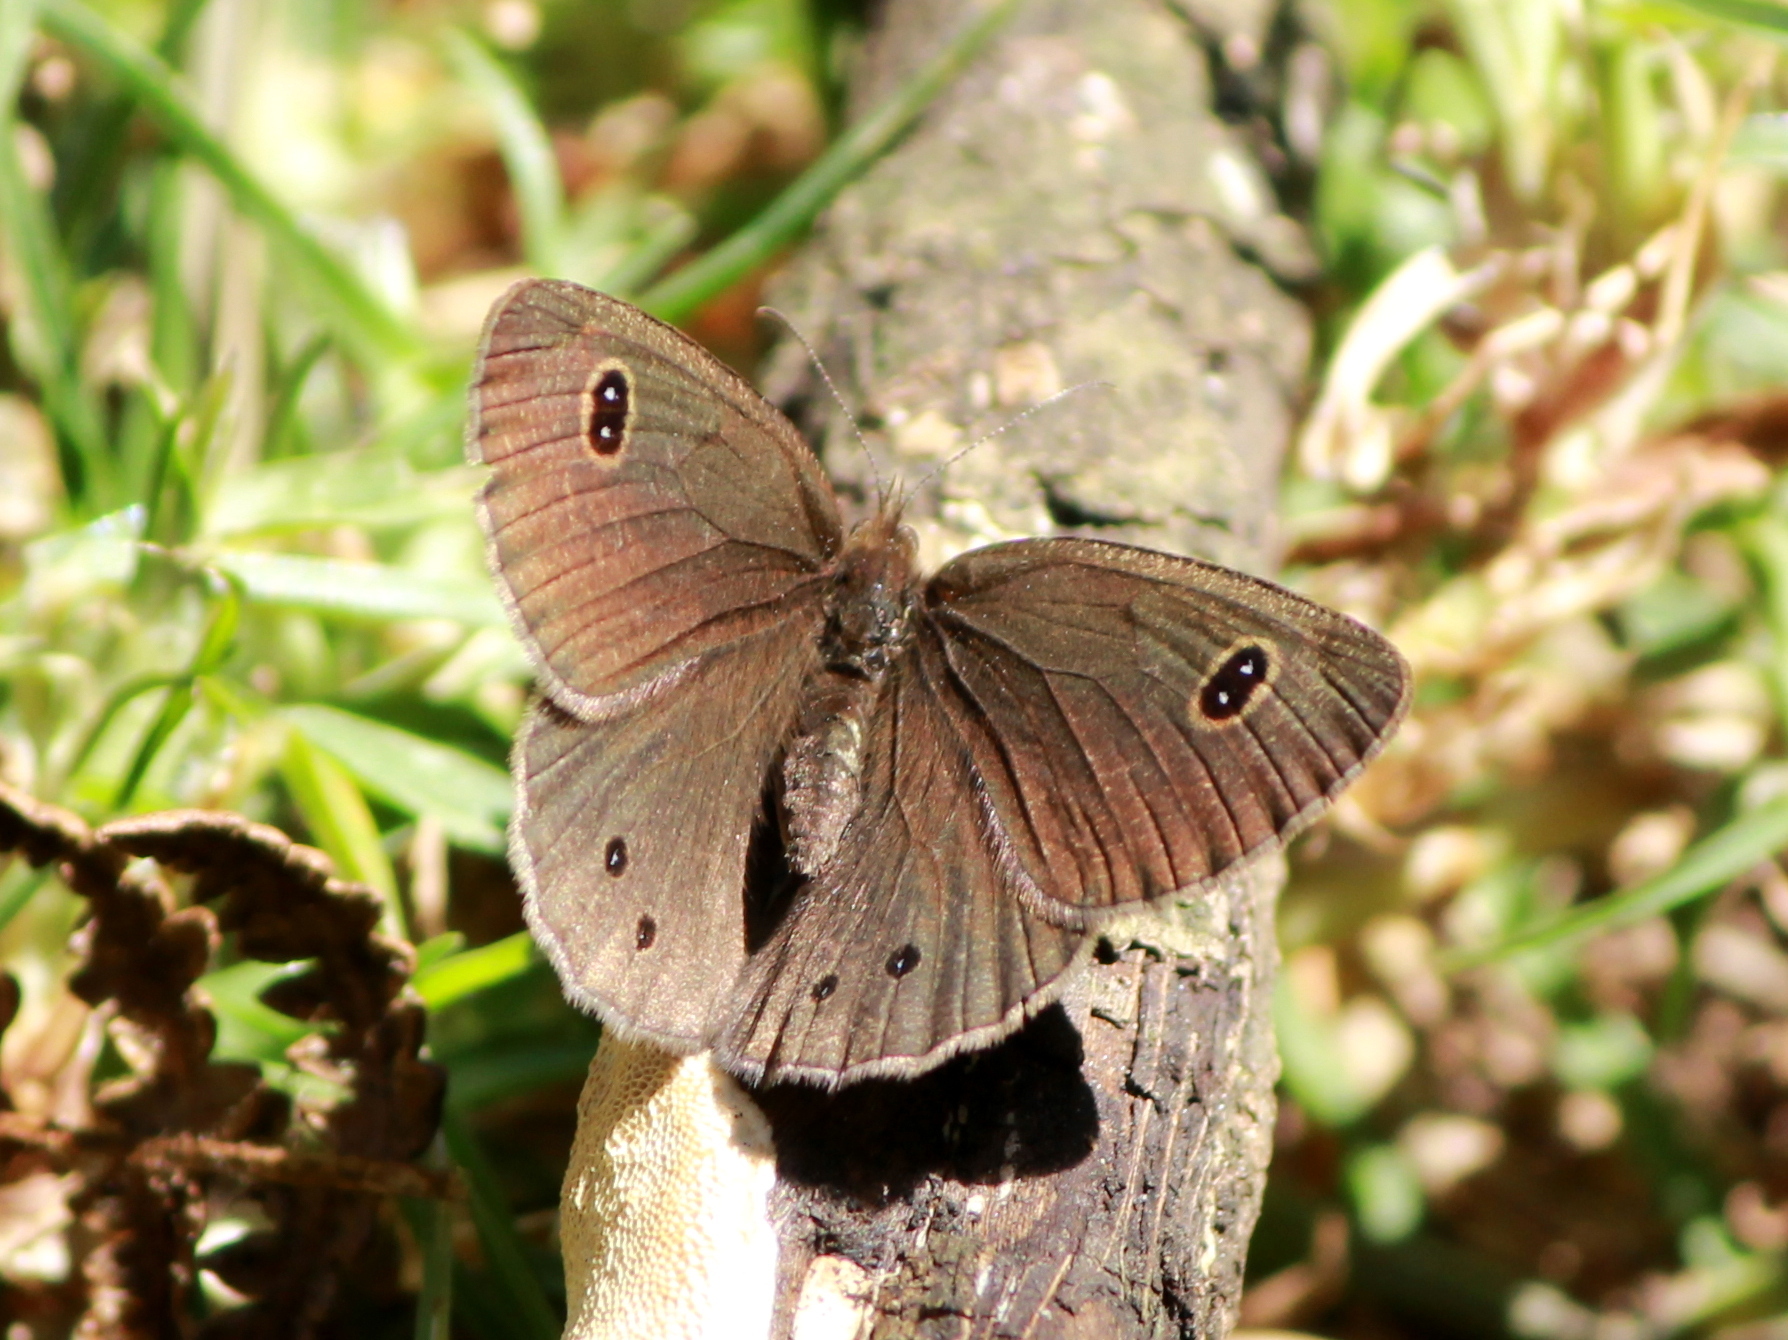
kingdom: Animalia
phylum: Arthropoda
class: Insecta
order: Lepidoptera
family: Nymphalidae
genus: Ypthima
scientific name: Ypthima ypthimoides
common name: Palni four-ring
